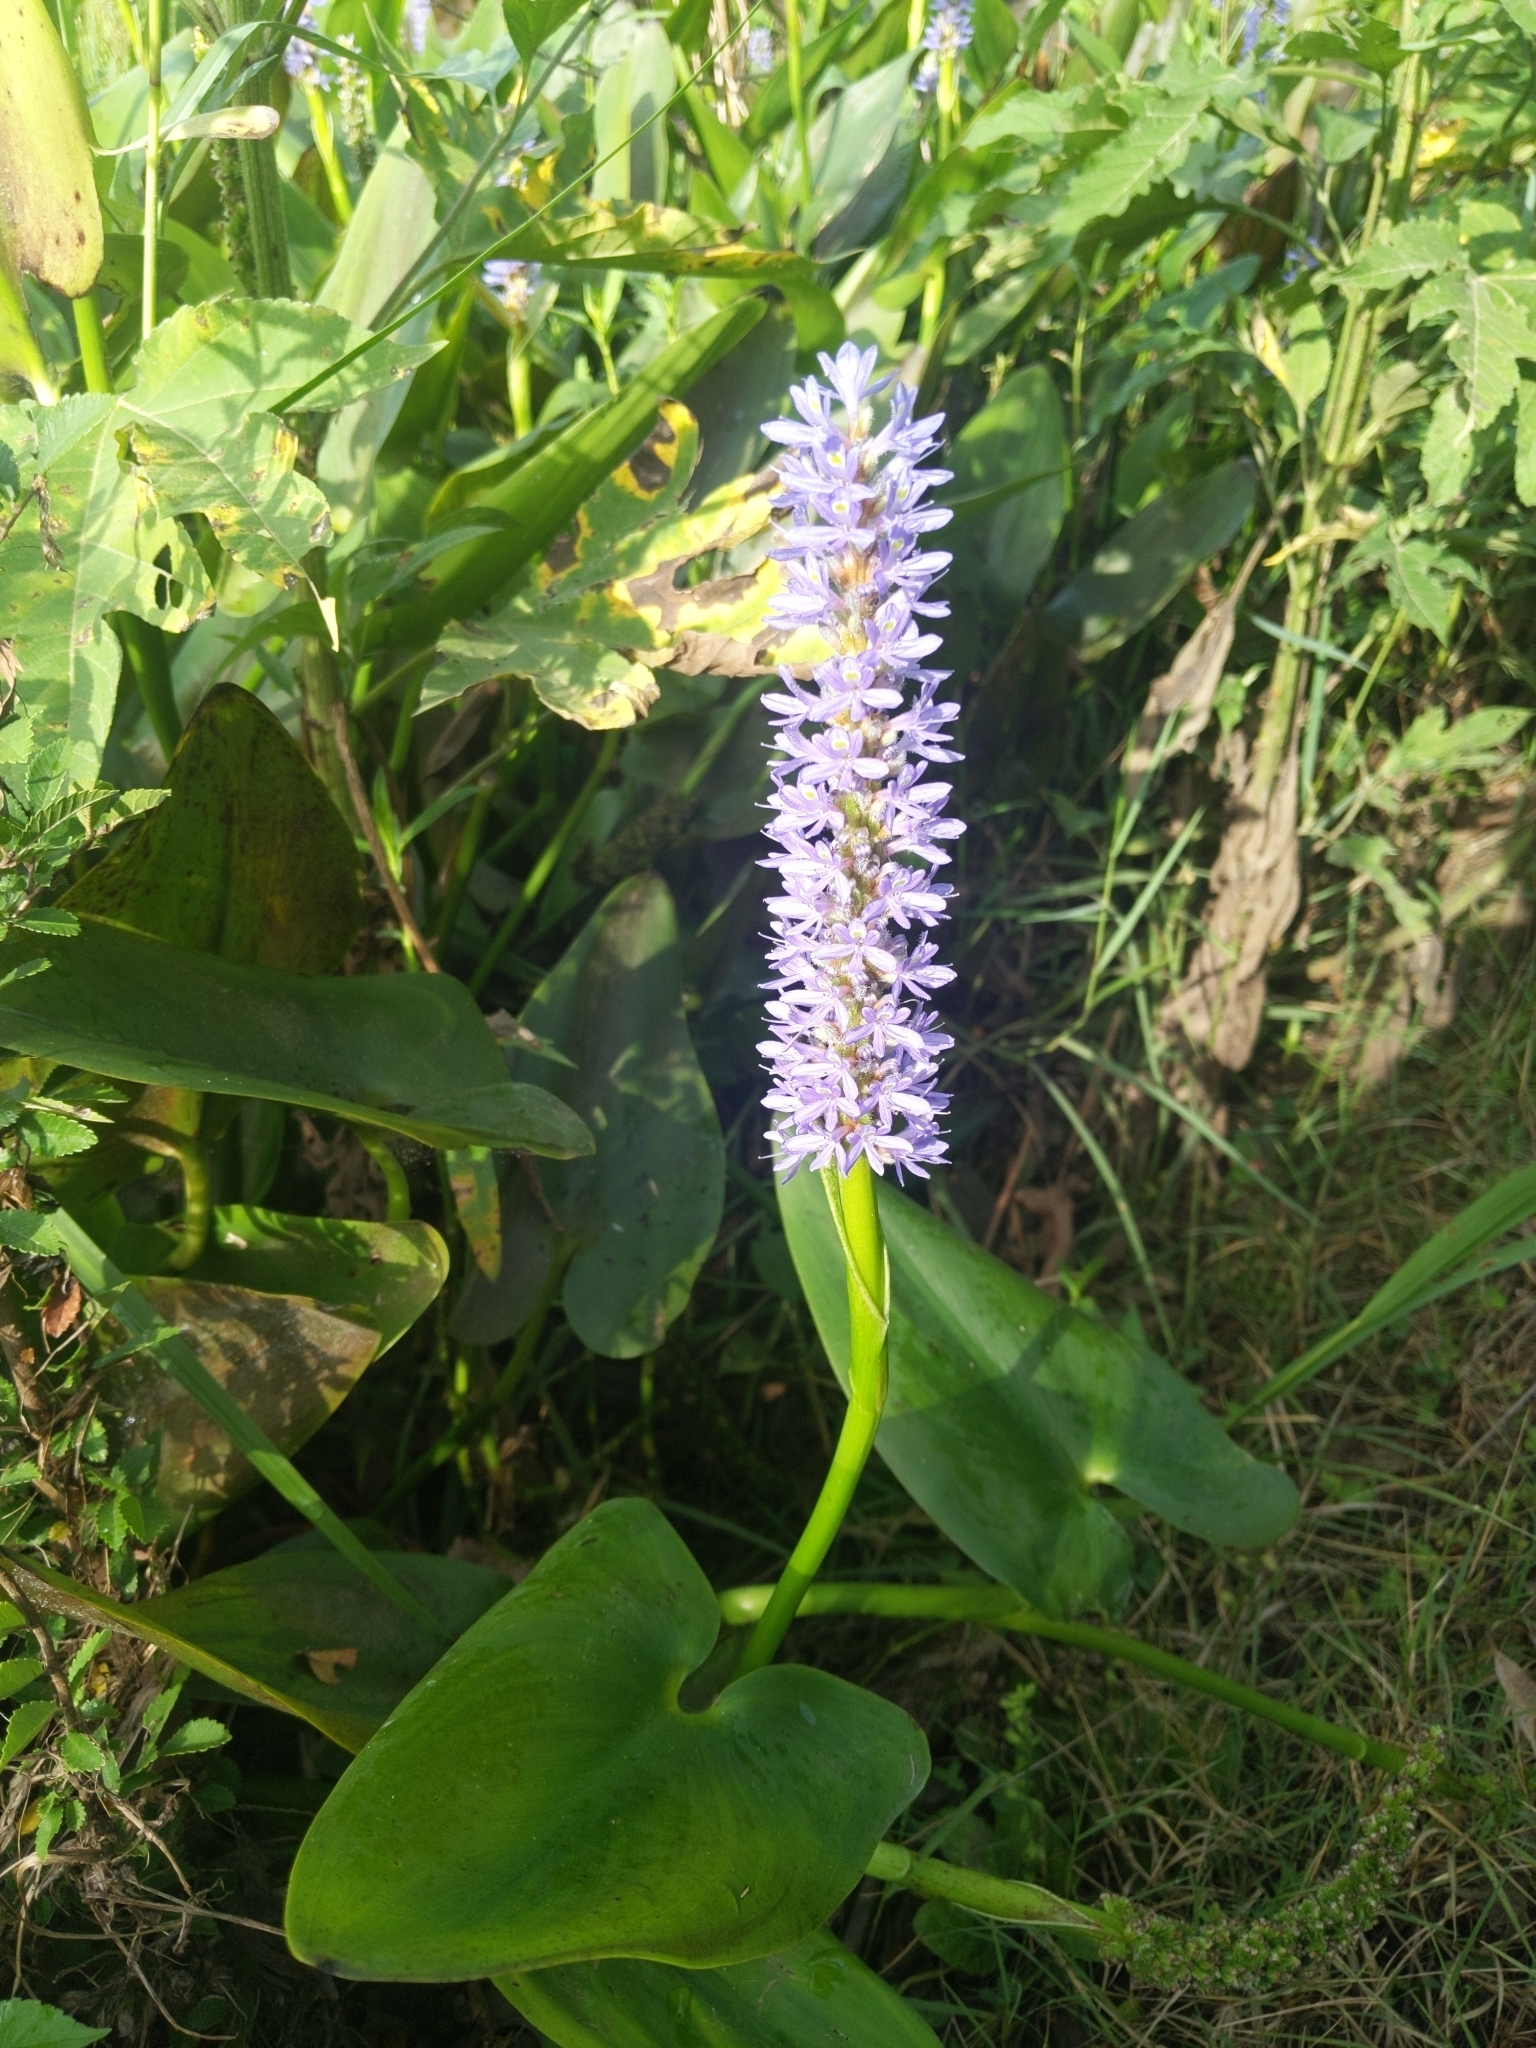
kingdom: Plantae
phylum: Tracheophyta
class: Liliopsida
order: Commelinales
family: Pontederiaceae
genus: Pontederia
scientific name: Pontederia cordata
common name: Pickerelweed
